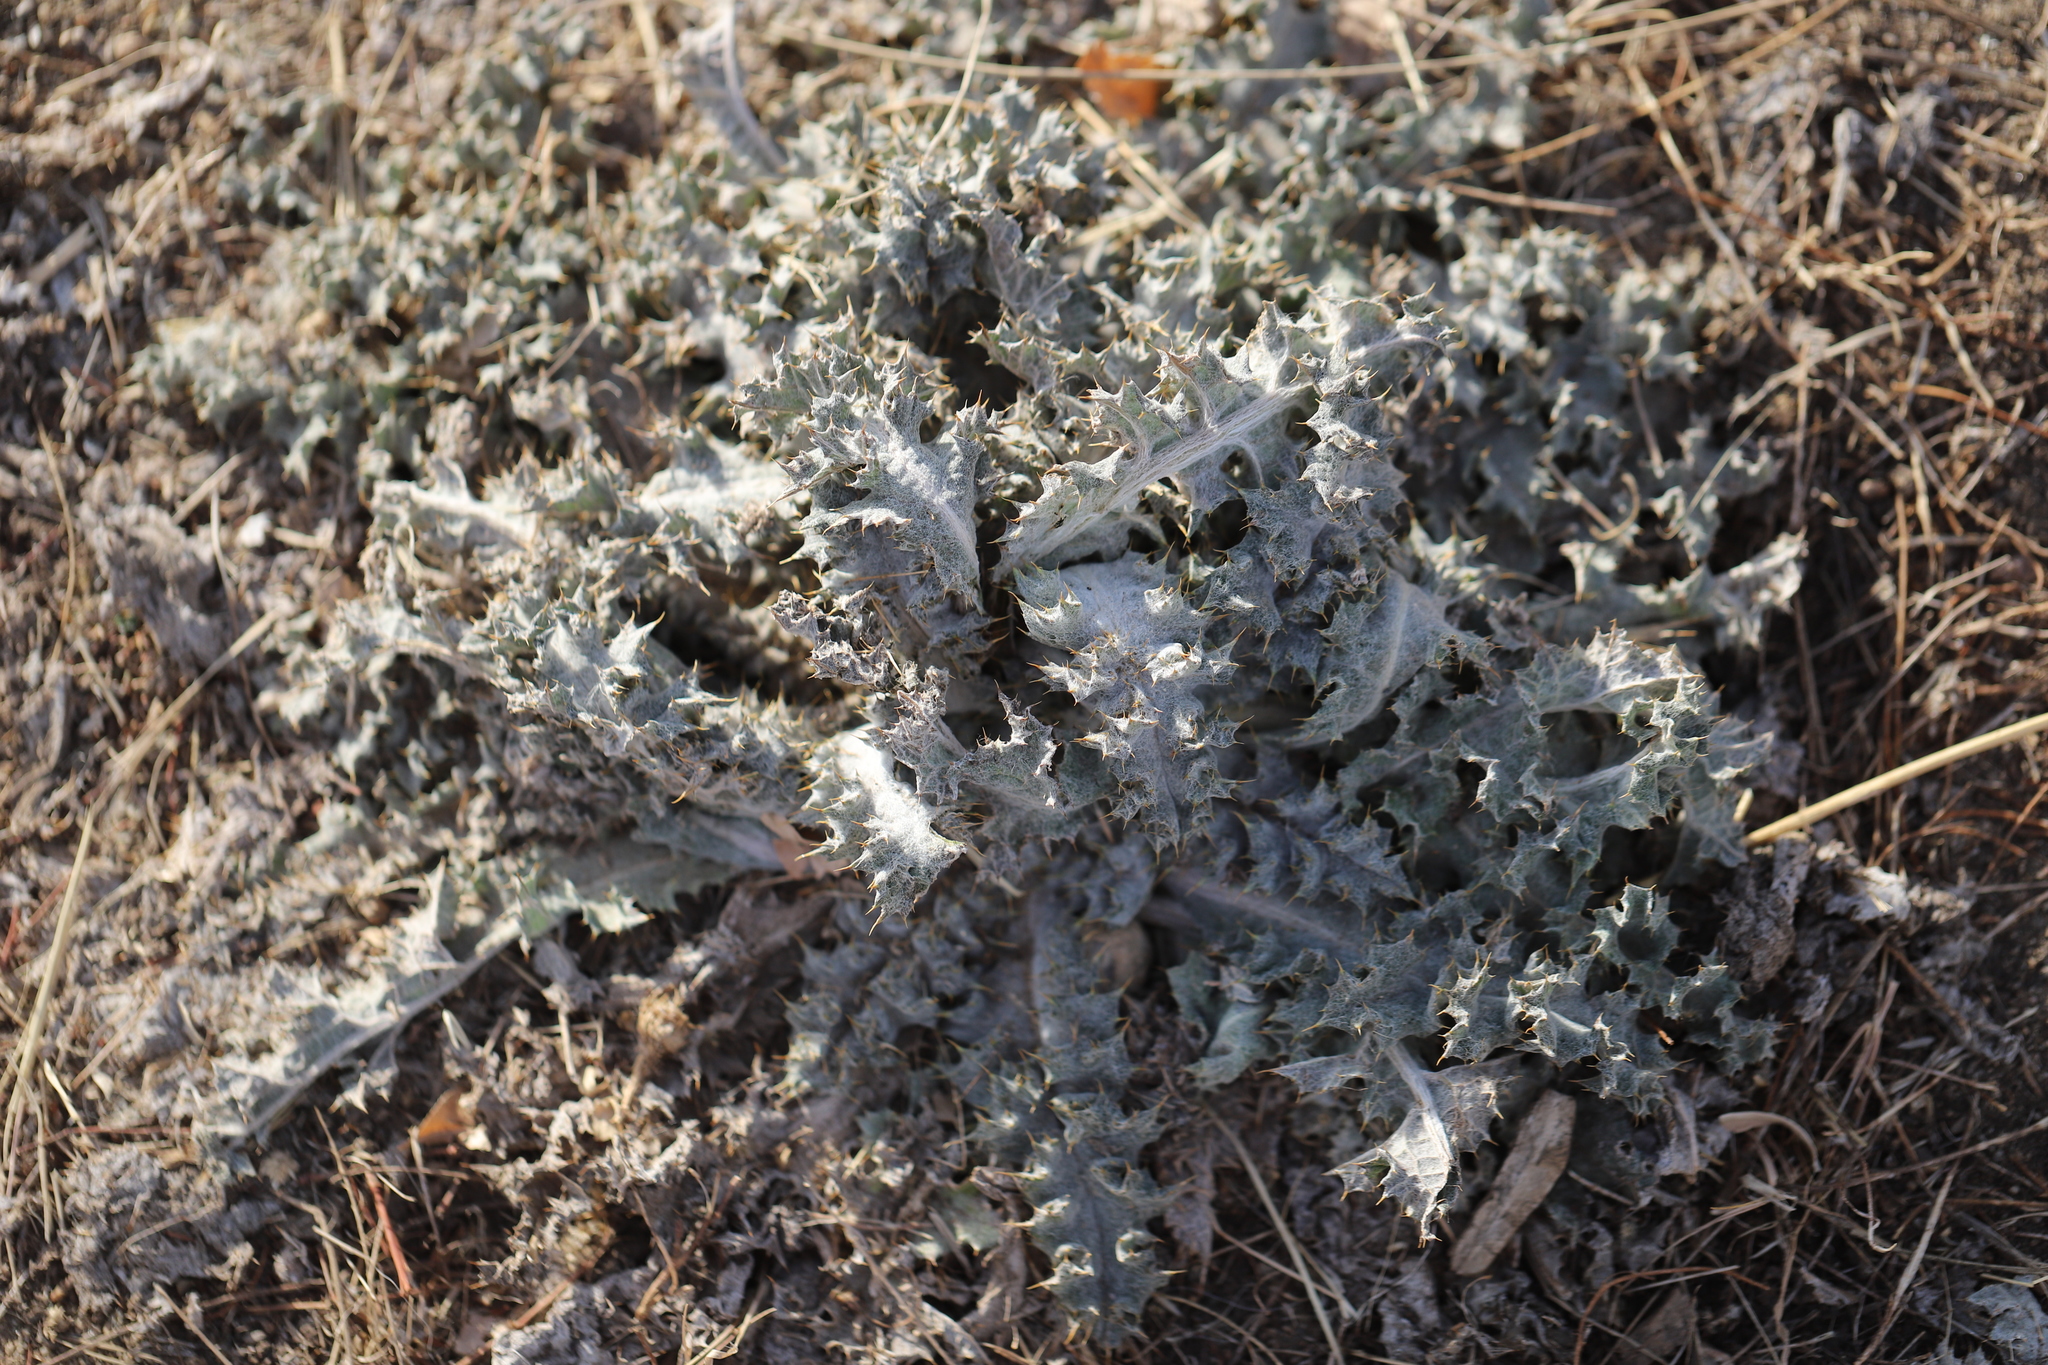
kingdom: Plantae
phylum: Tracheophyta
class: Magnoliopsida
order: Asterales
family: Asteraceae
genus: Onopordum
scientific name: Onopordum acanthium
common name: Scotch thistle
